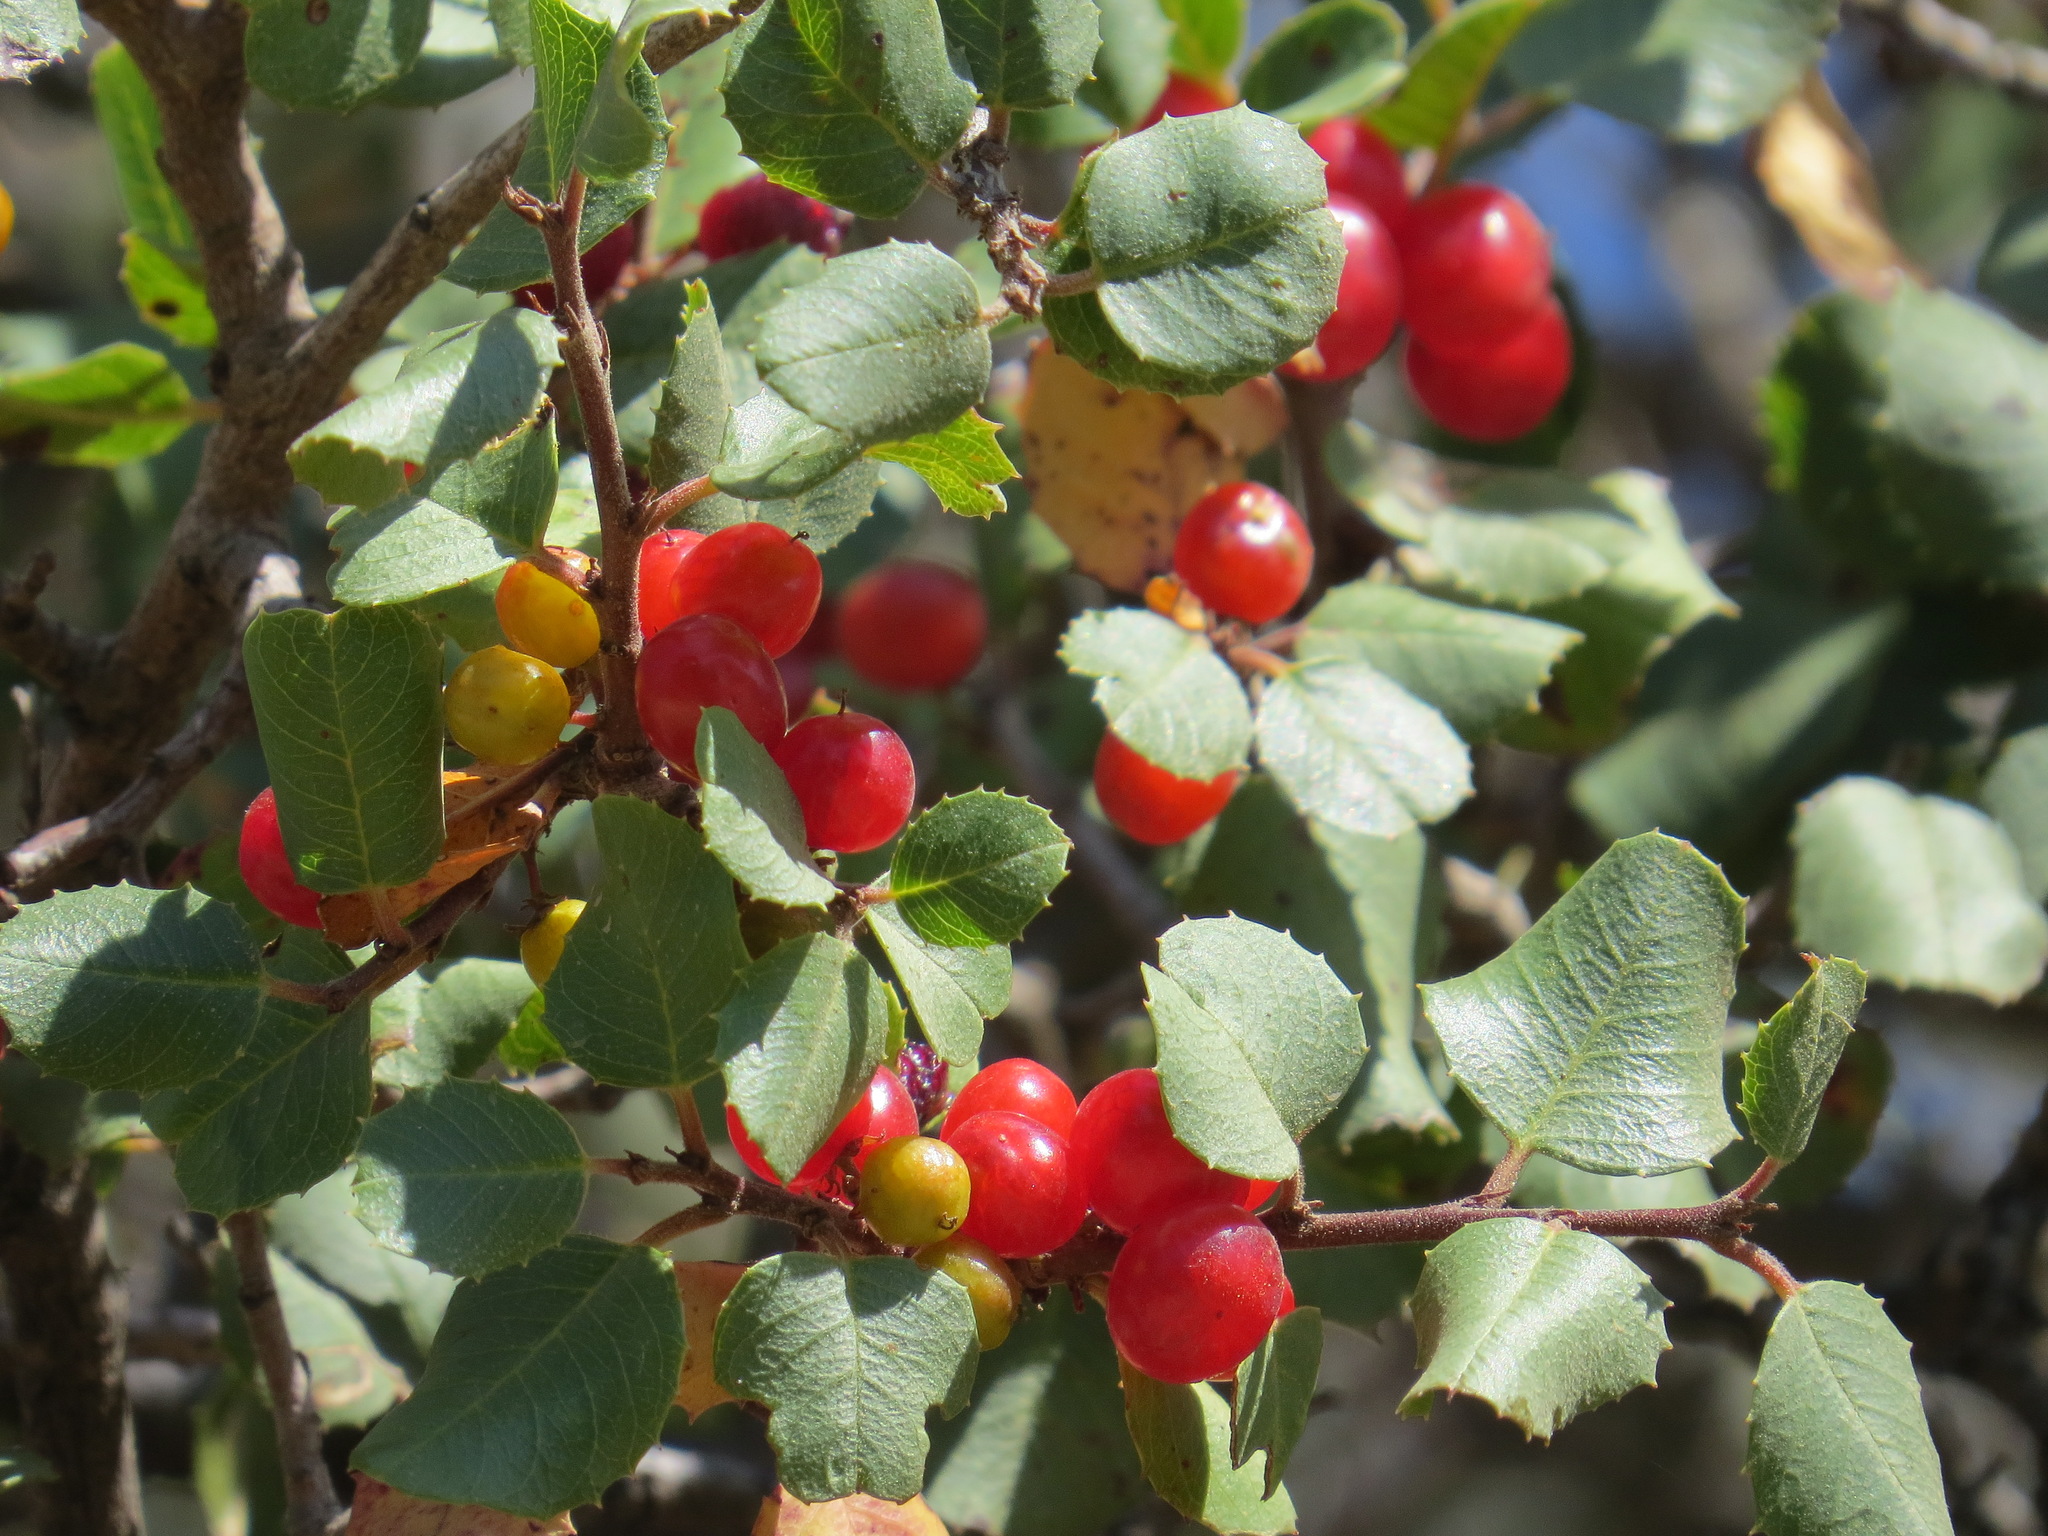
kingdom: Plantae
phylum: Tracheophyta
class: Magnoliopsida
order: Rosales
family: Rhamnaceae
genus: Endotropis
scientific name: Endotropis crocea
